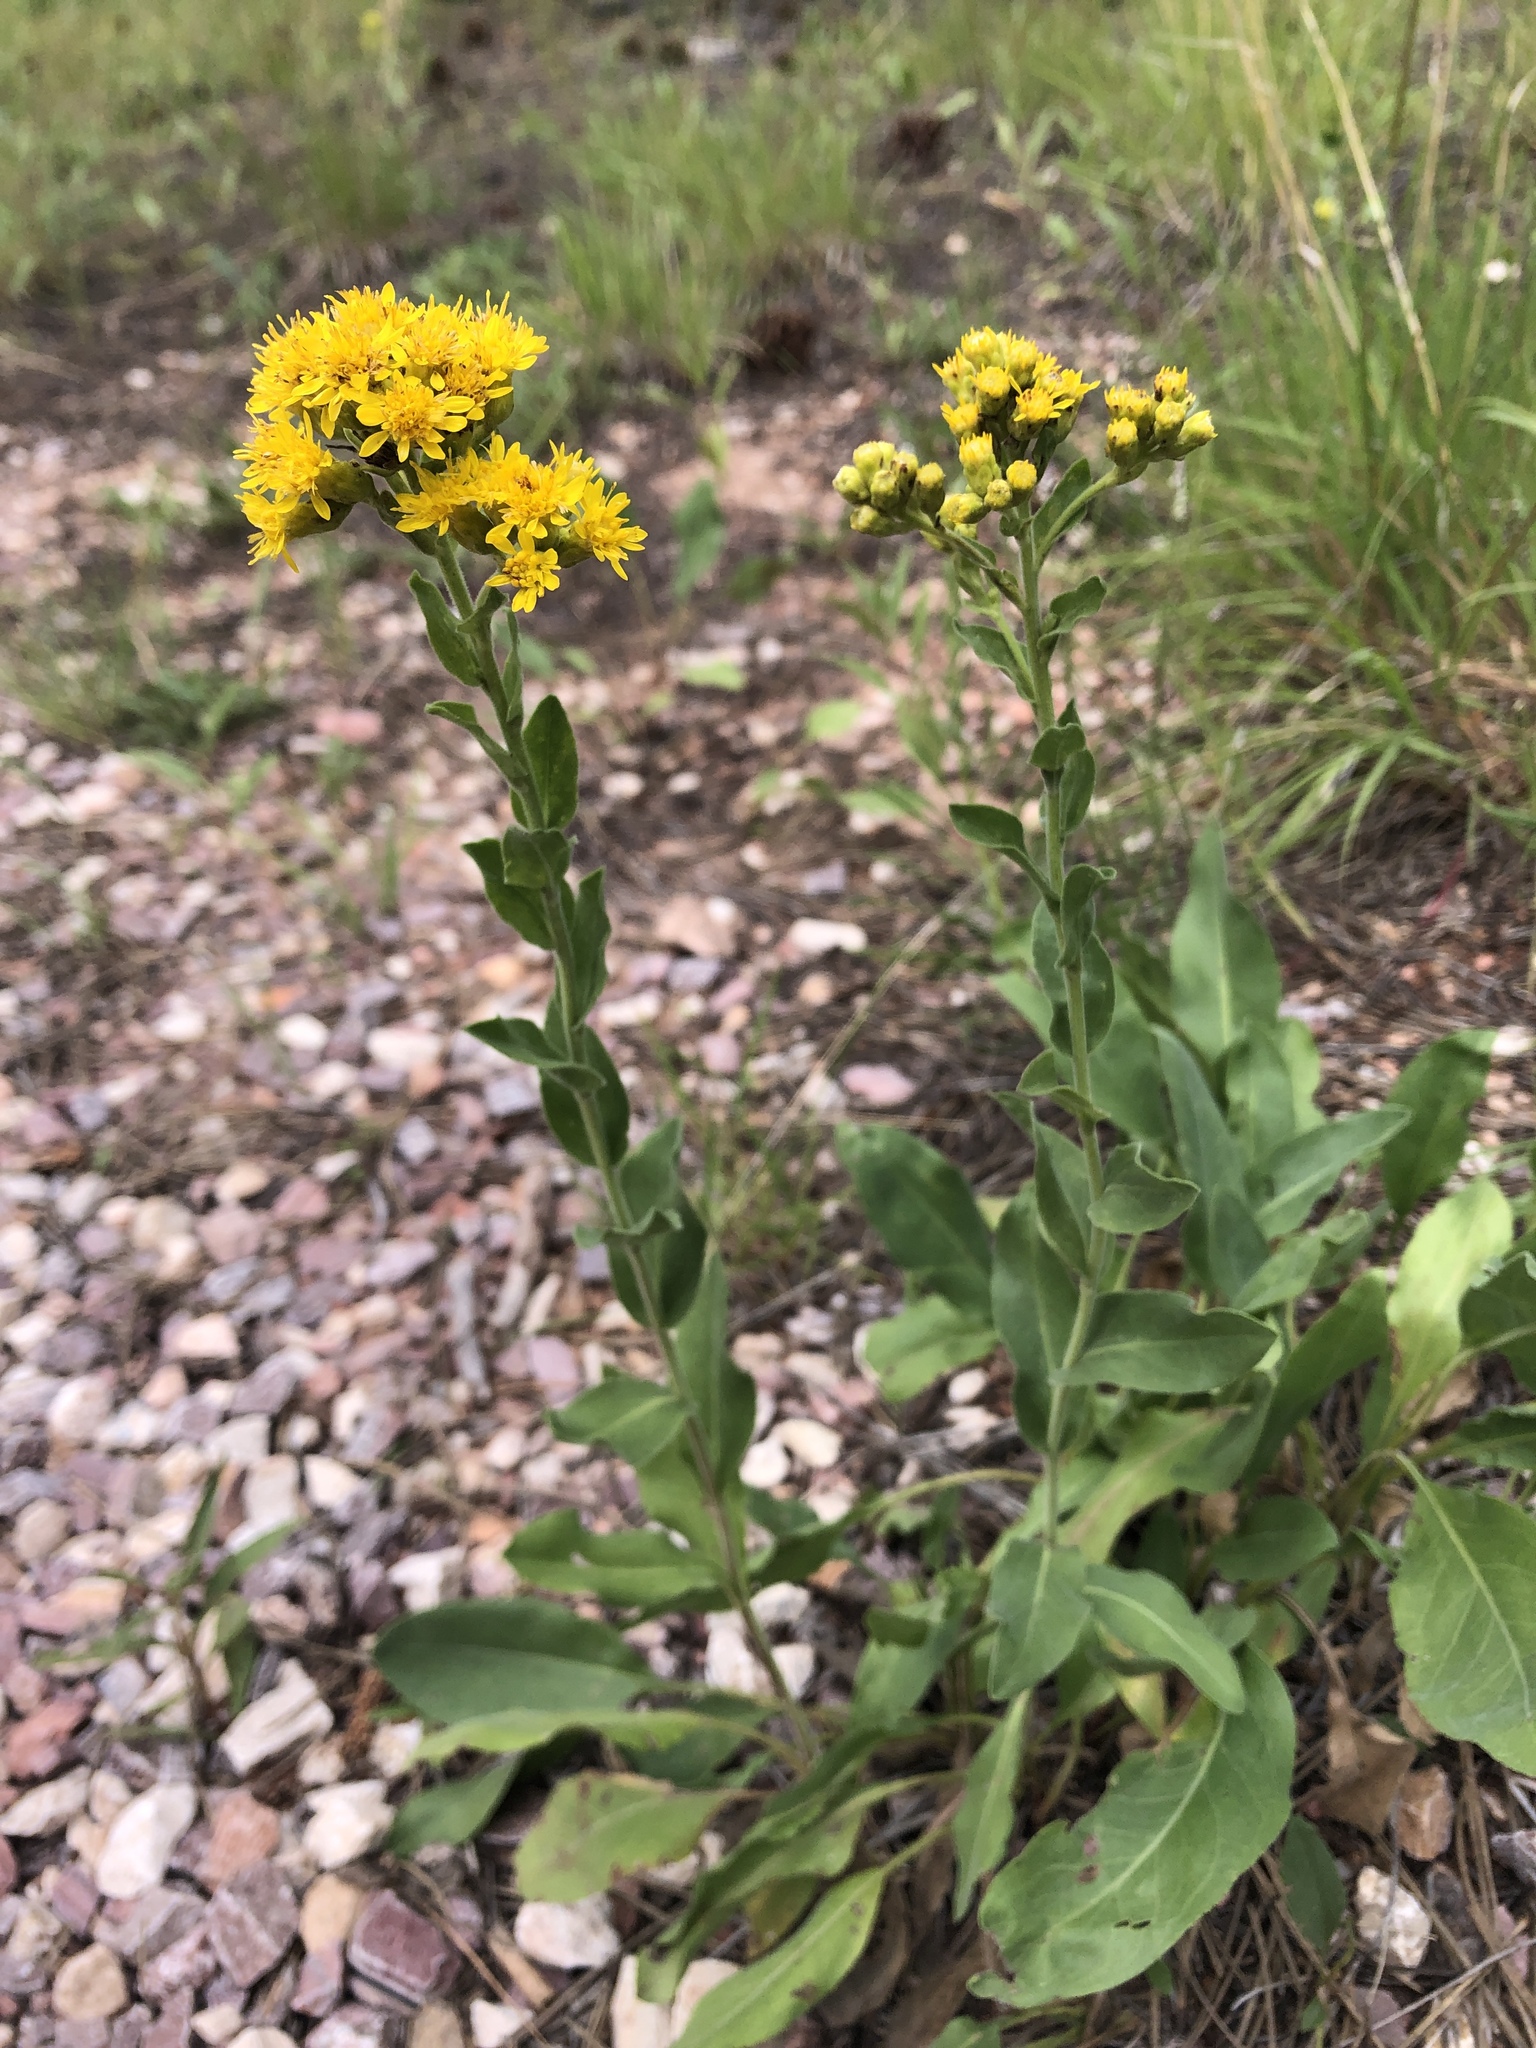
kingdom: Plantae
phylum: Tracheophyta
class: Magnoliopsida
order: Asterales
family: Asteraceae
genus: Solidago
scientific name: Solidago rigida
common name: Rigid goldenrod
